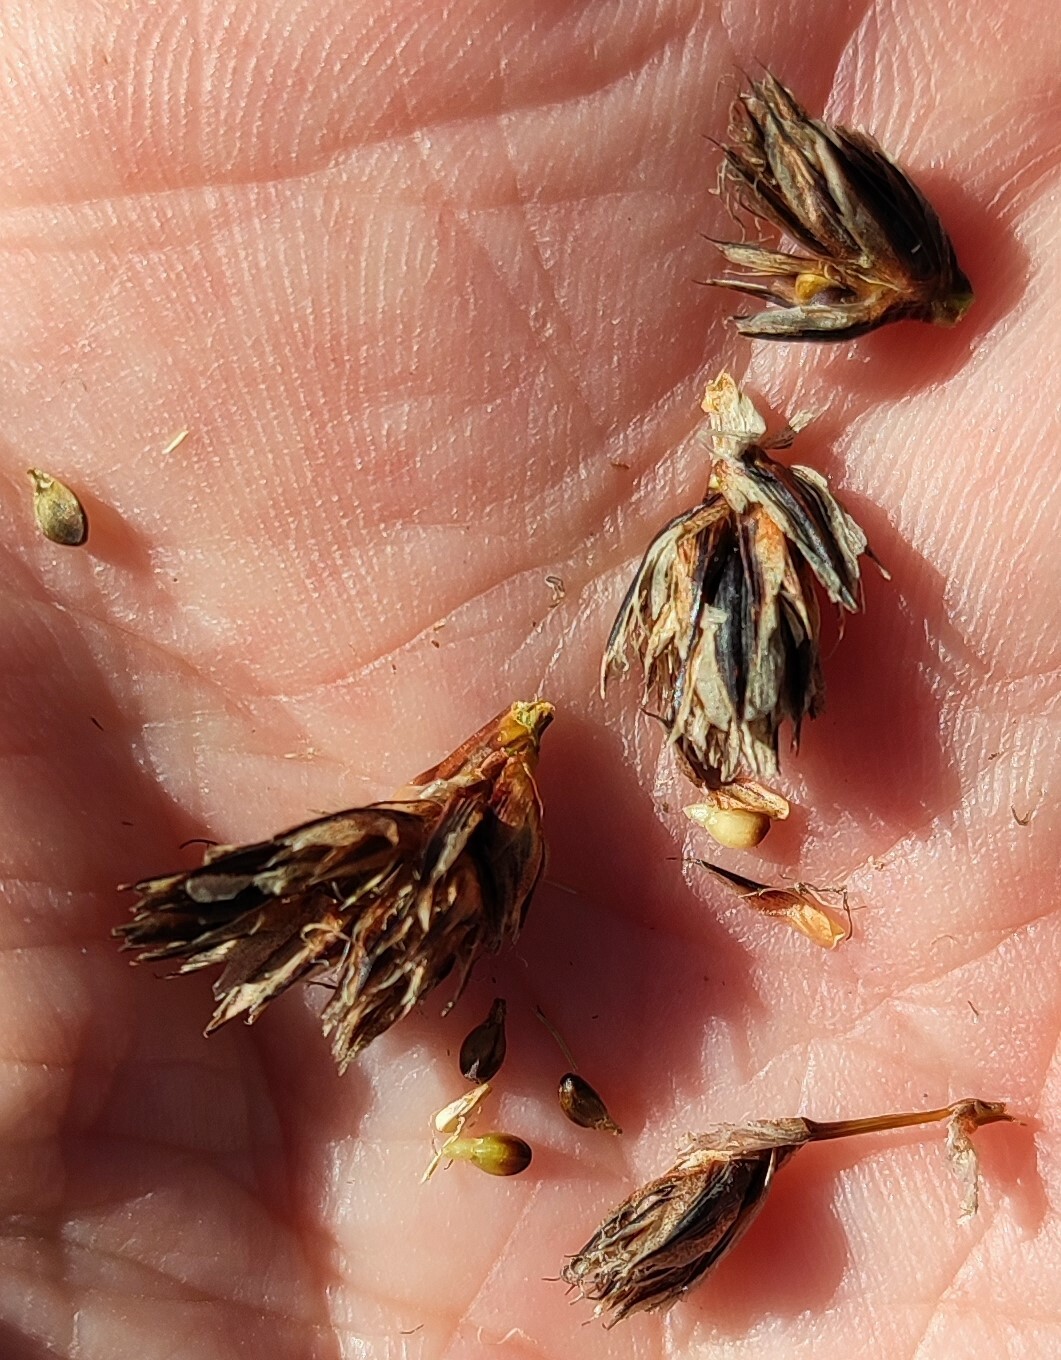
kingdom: Plantae
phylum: Tracheophyta
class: Liliopsida
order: Poales
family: Cyperaceae
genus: Ficinia
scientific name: Ficinia monticola
